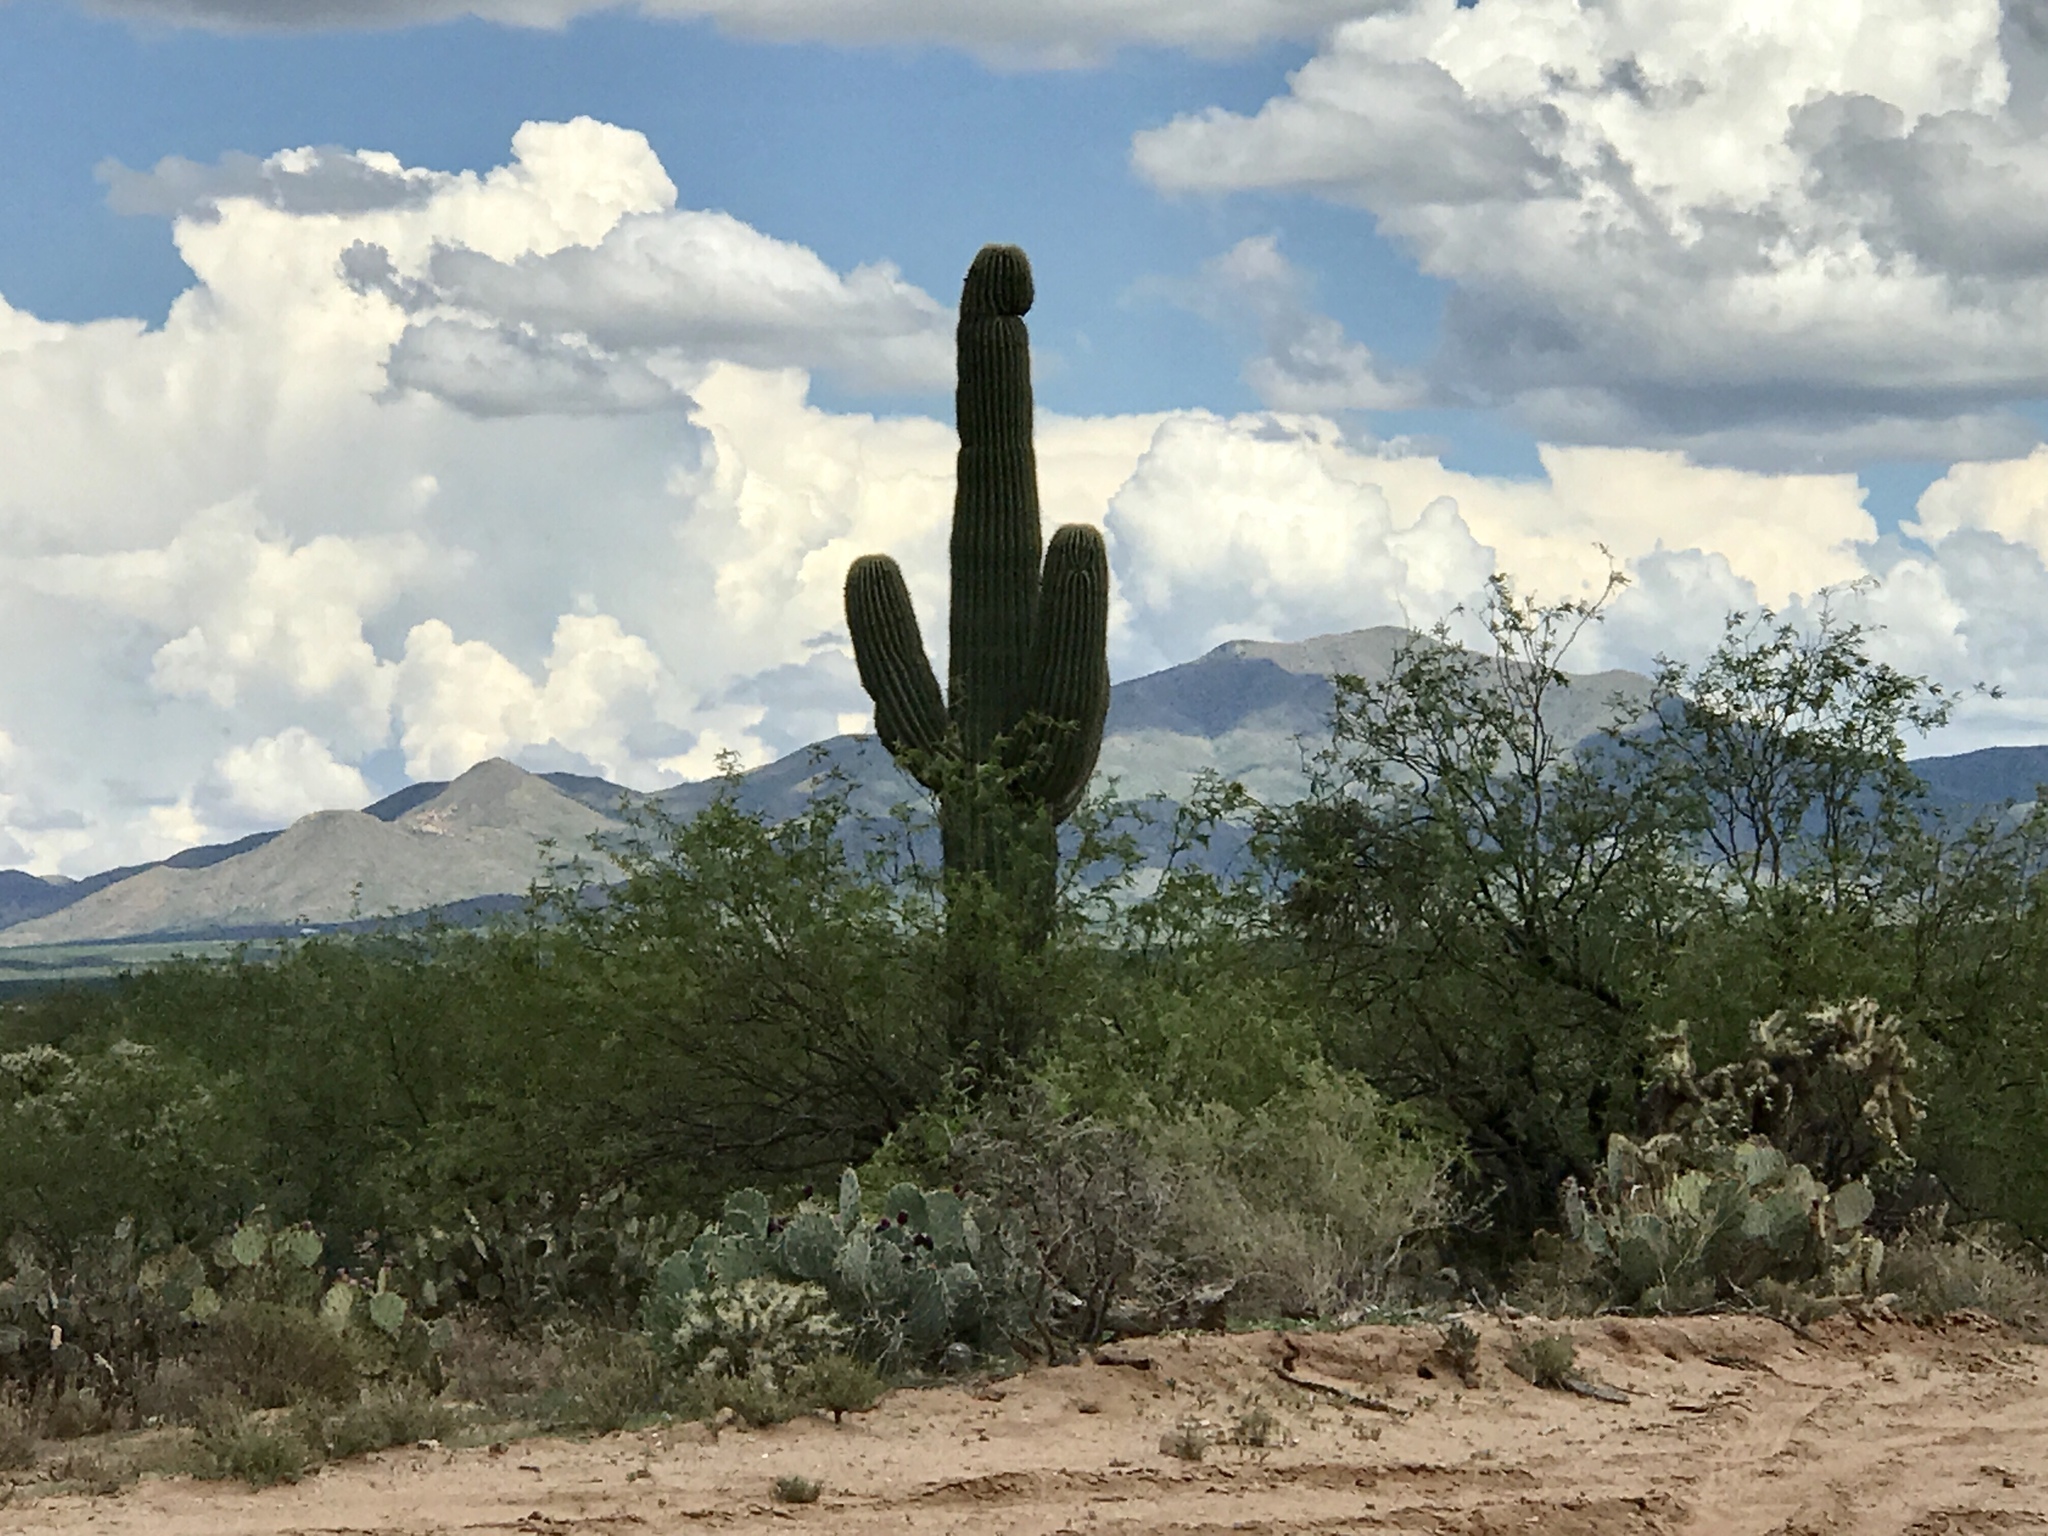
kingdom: Plantae
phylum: Tracheophyta
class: Magnoliopsida
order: Caryophyllales
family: Cactaceae
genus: Carnegiea
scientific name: Carnegiea gigantea
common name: Saguaro
